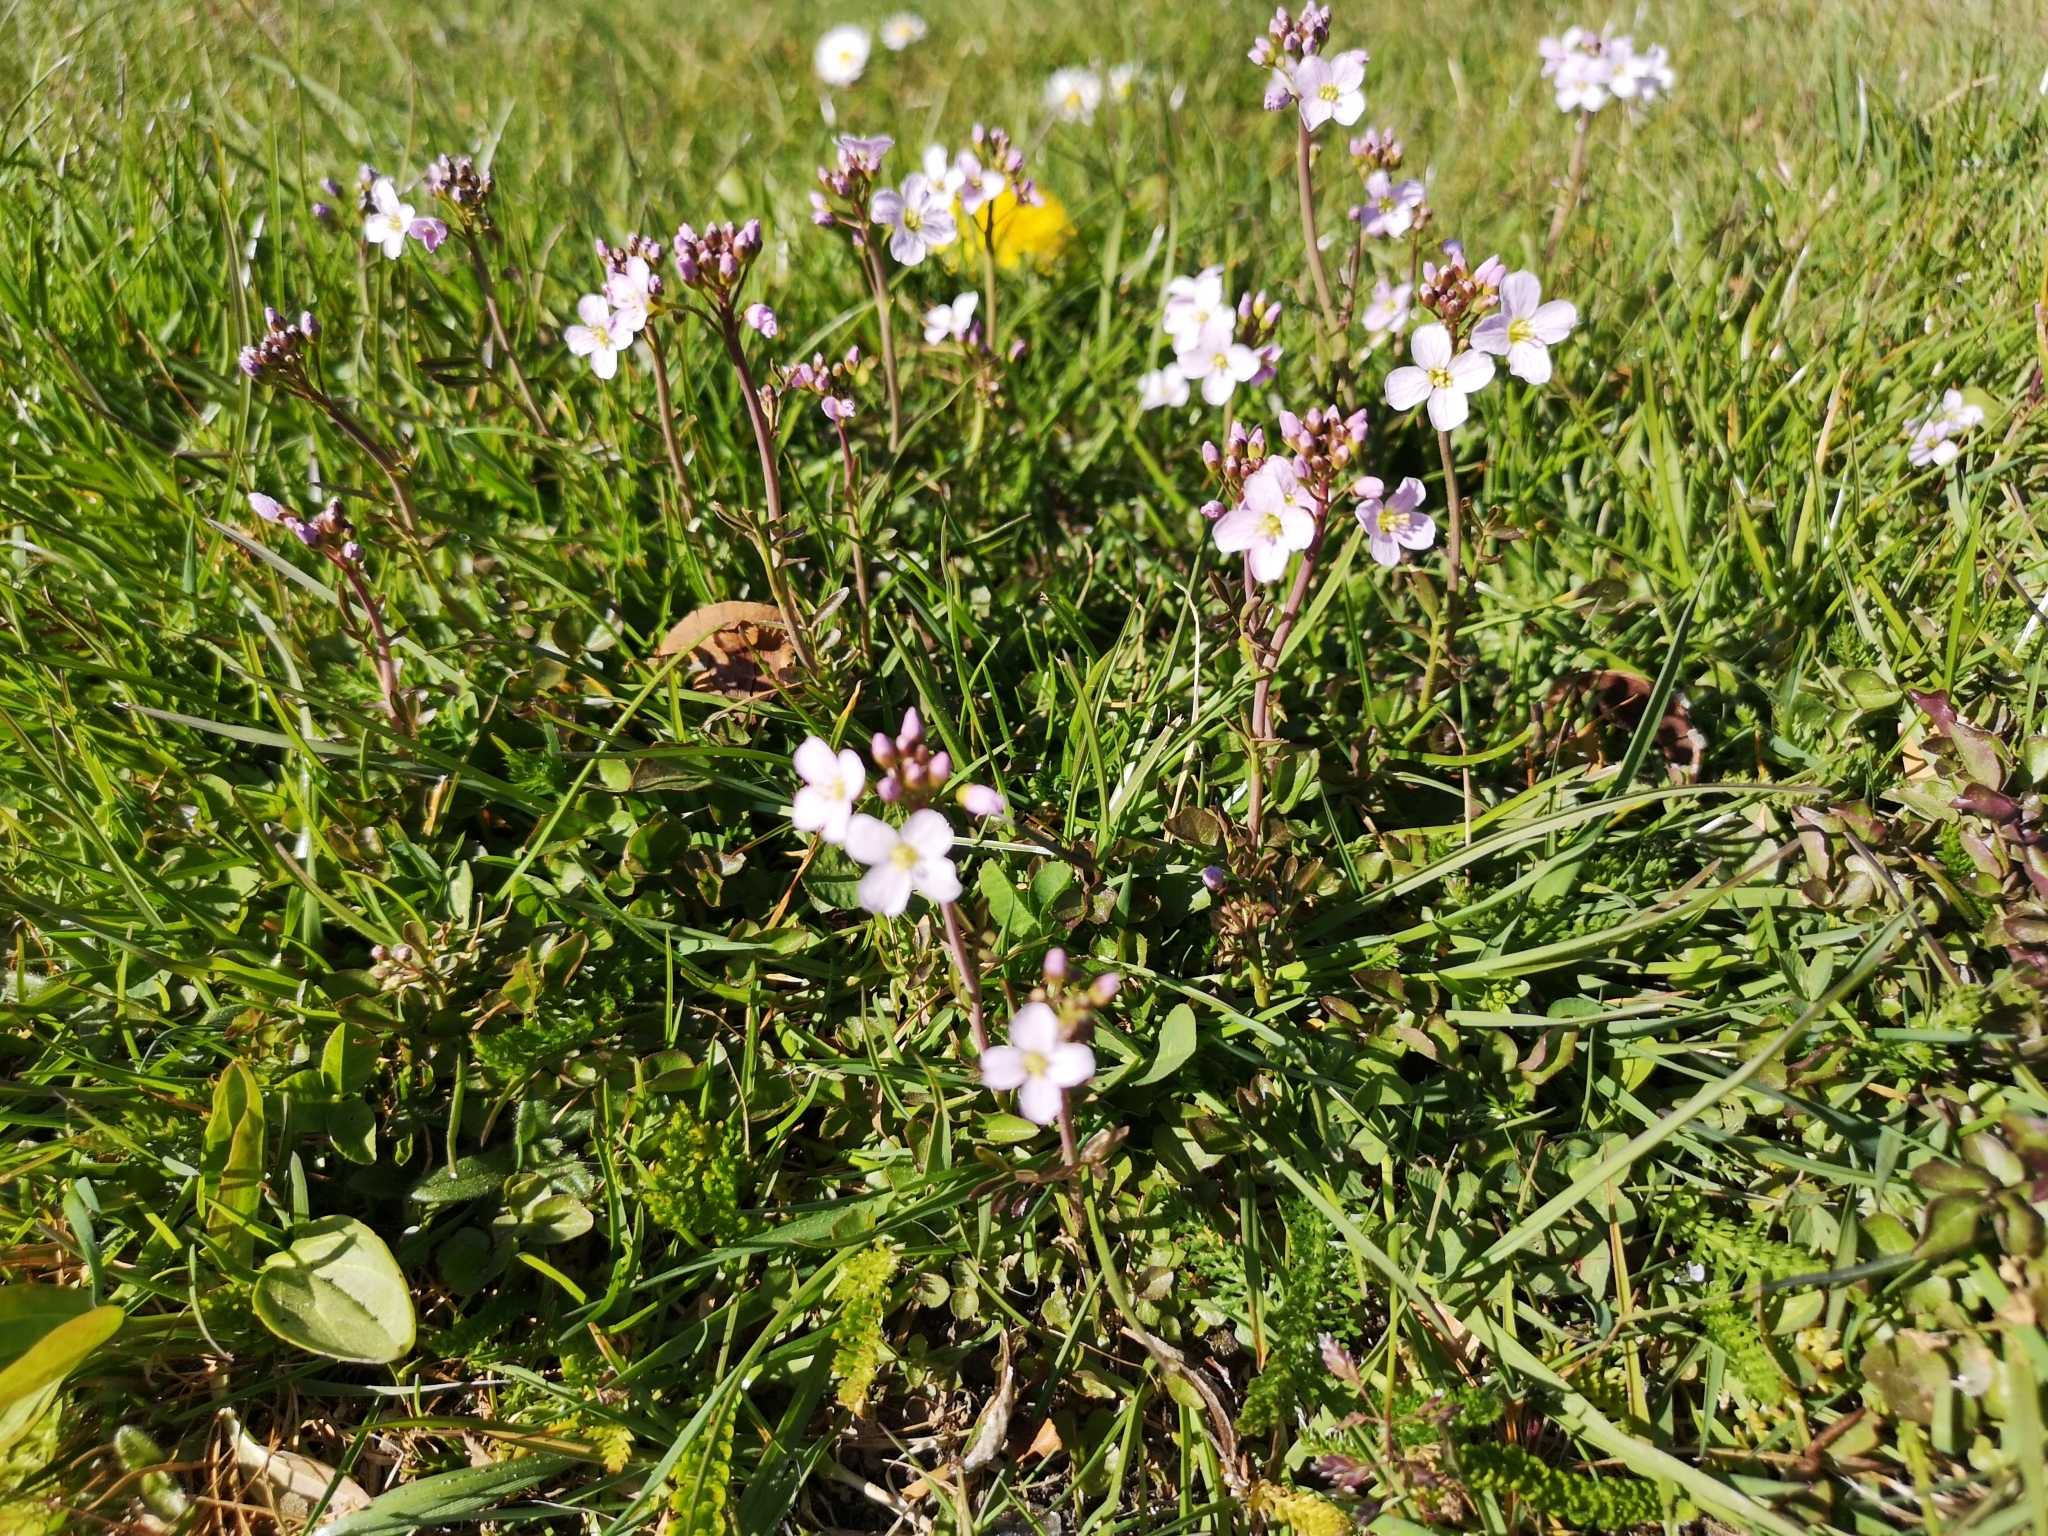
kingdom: Plantae
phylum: Tracheophyta
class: Magnoliopsida
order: Brassicales
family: Brassicaceae
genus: Cardamine
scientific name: Cardamine pratensis
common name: Cuckoo flower
